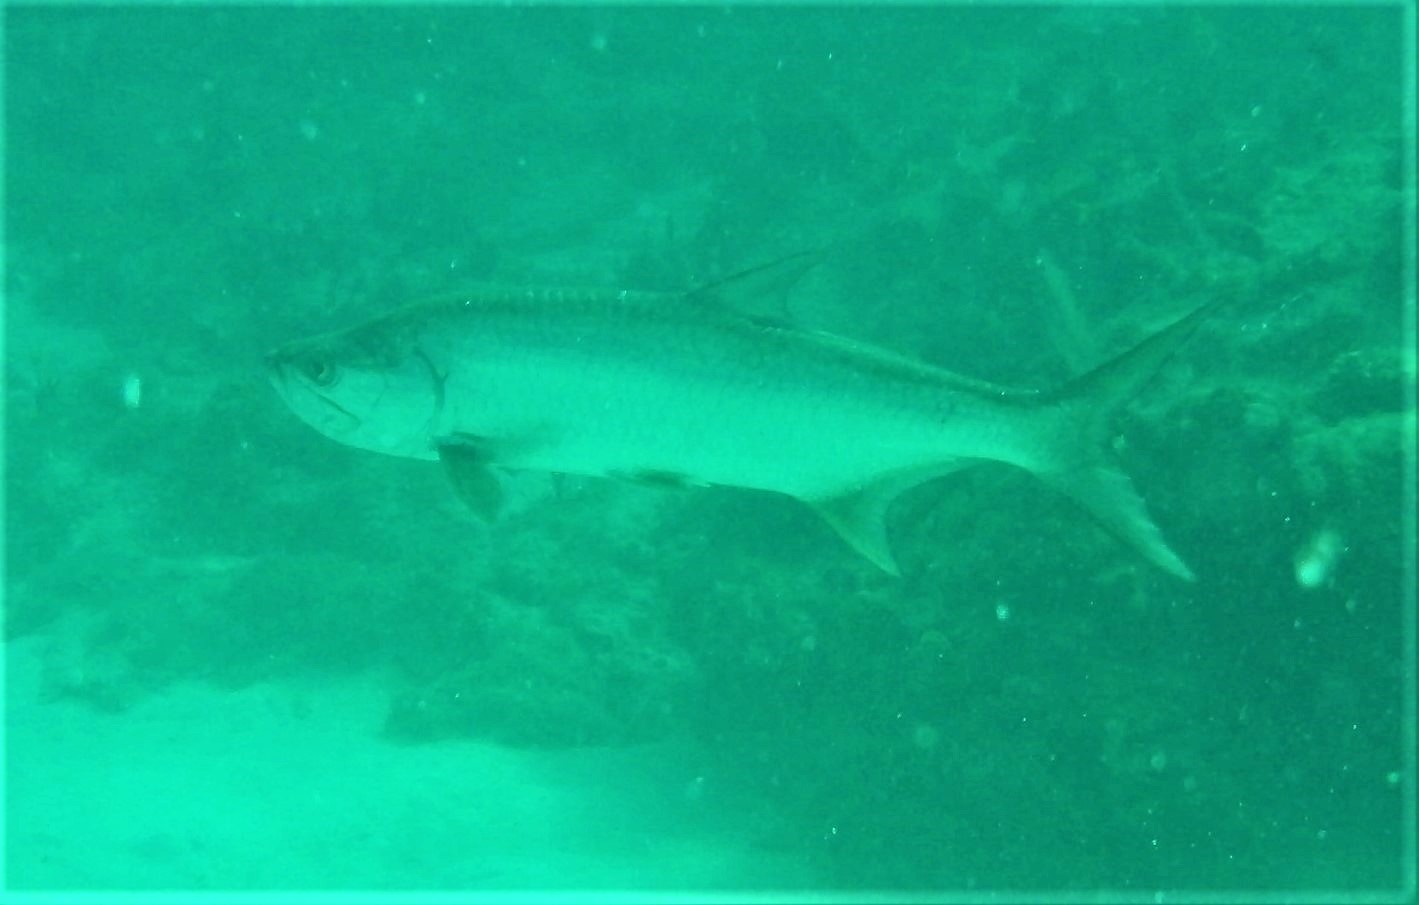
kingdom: Animalia
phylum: Chordata
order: Elopiformes
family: Megalopidae
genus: Megalops
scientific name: Megalops atlanticus
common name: Tarpon
